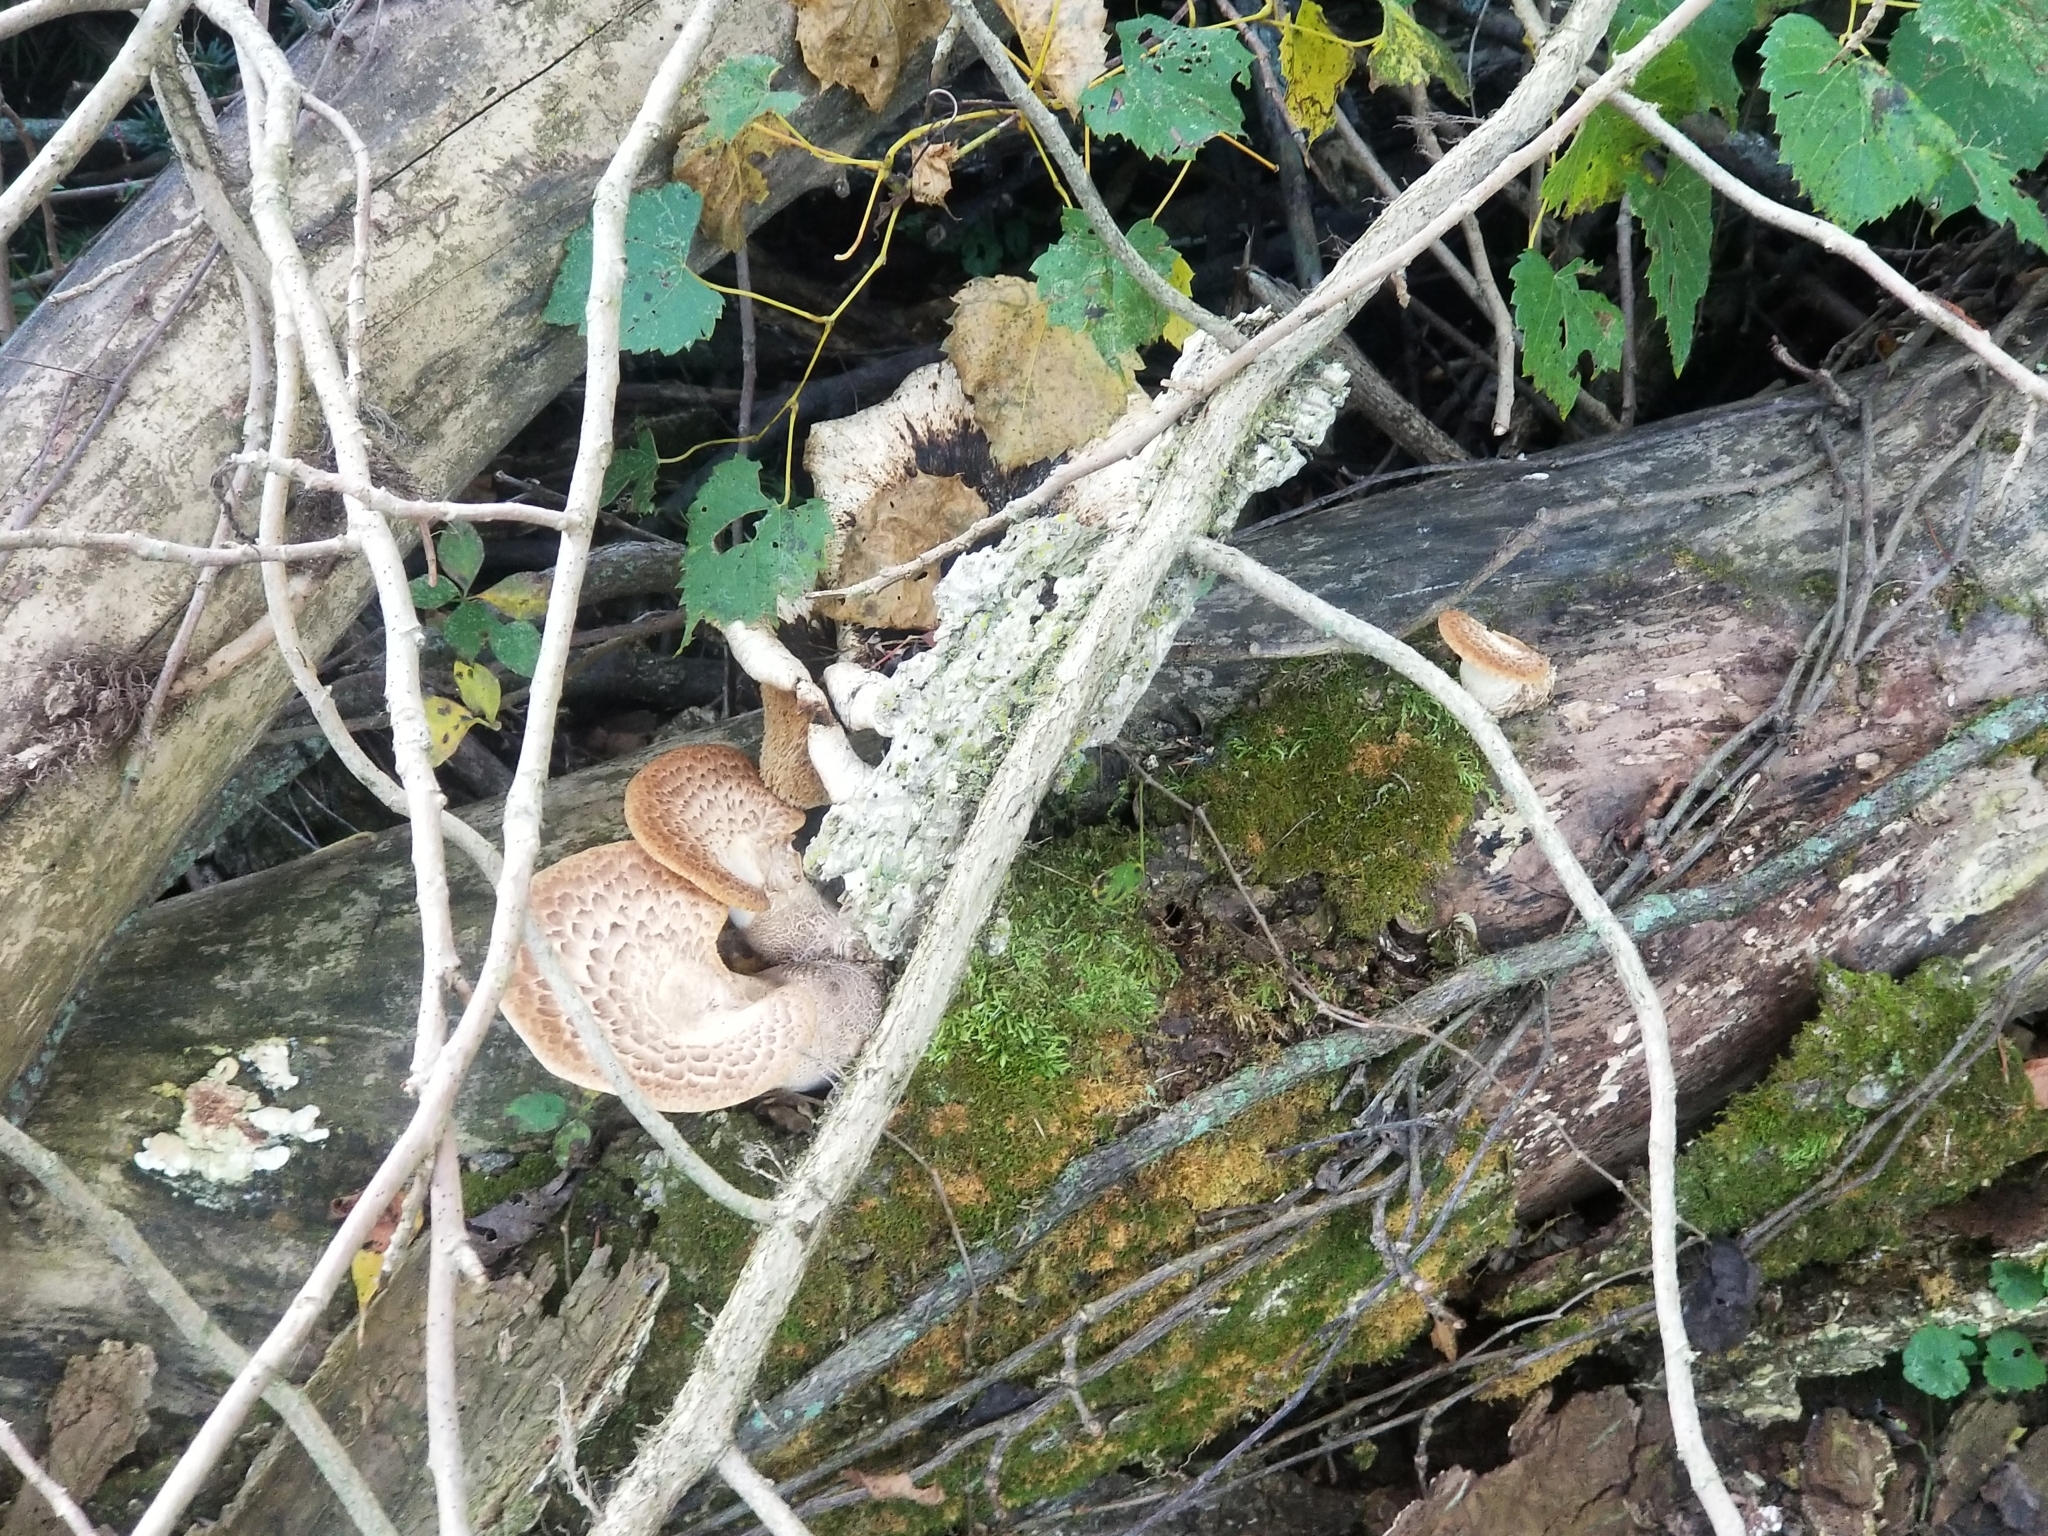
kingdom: Fungi
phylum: Basidiomycota
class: Agaricomycetes
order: Polyporales
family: Polyporaceae
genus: Cerioporus
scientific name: Cerioporus squamosus
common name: Dryad's saddle
